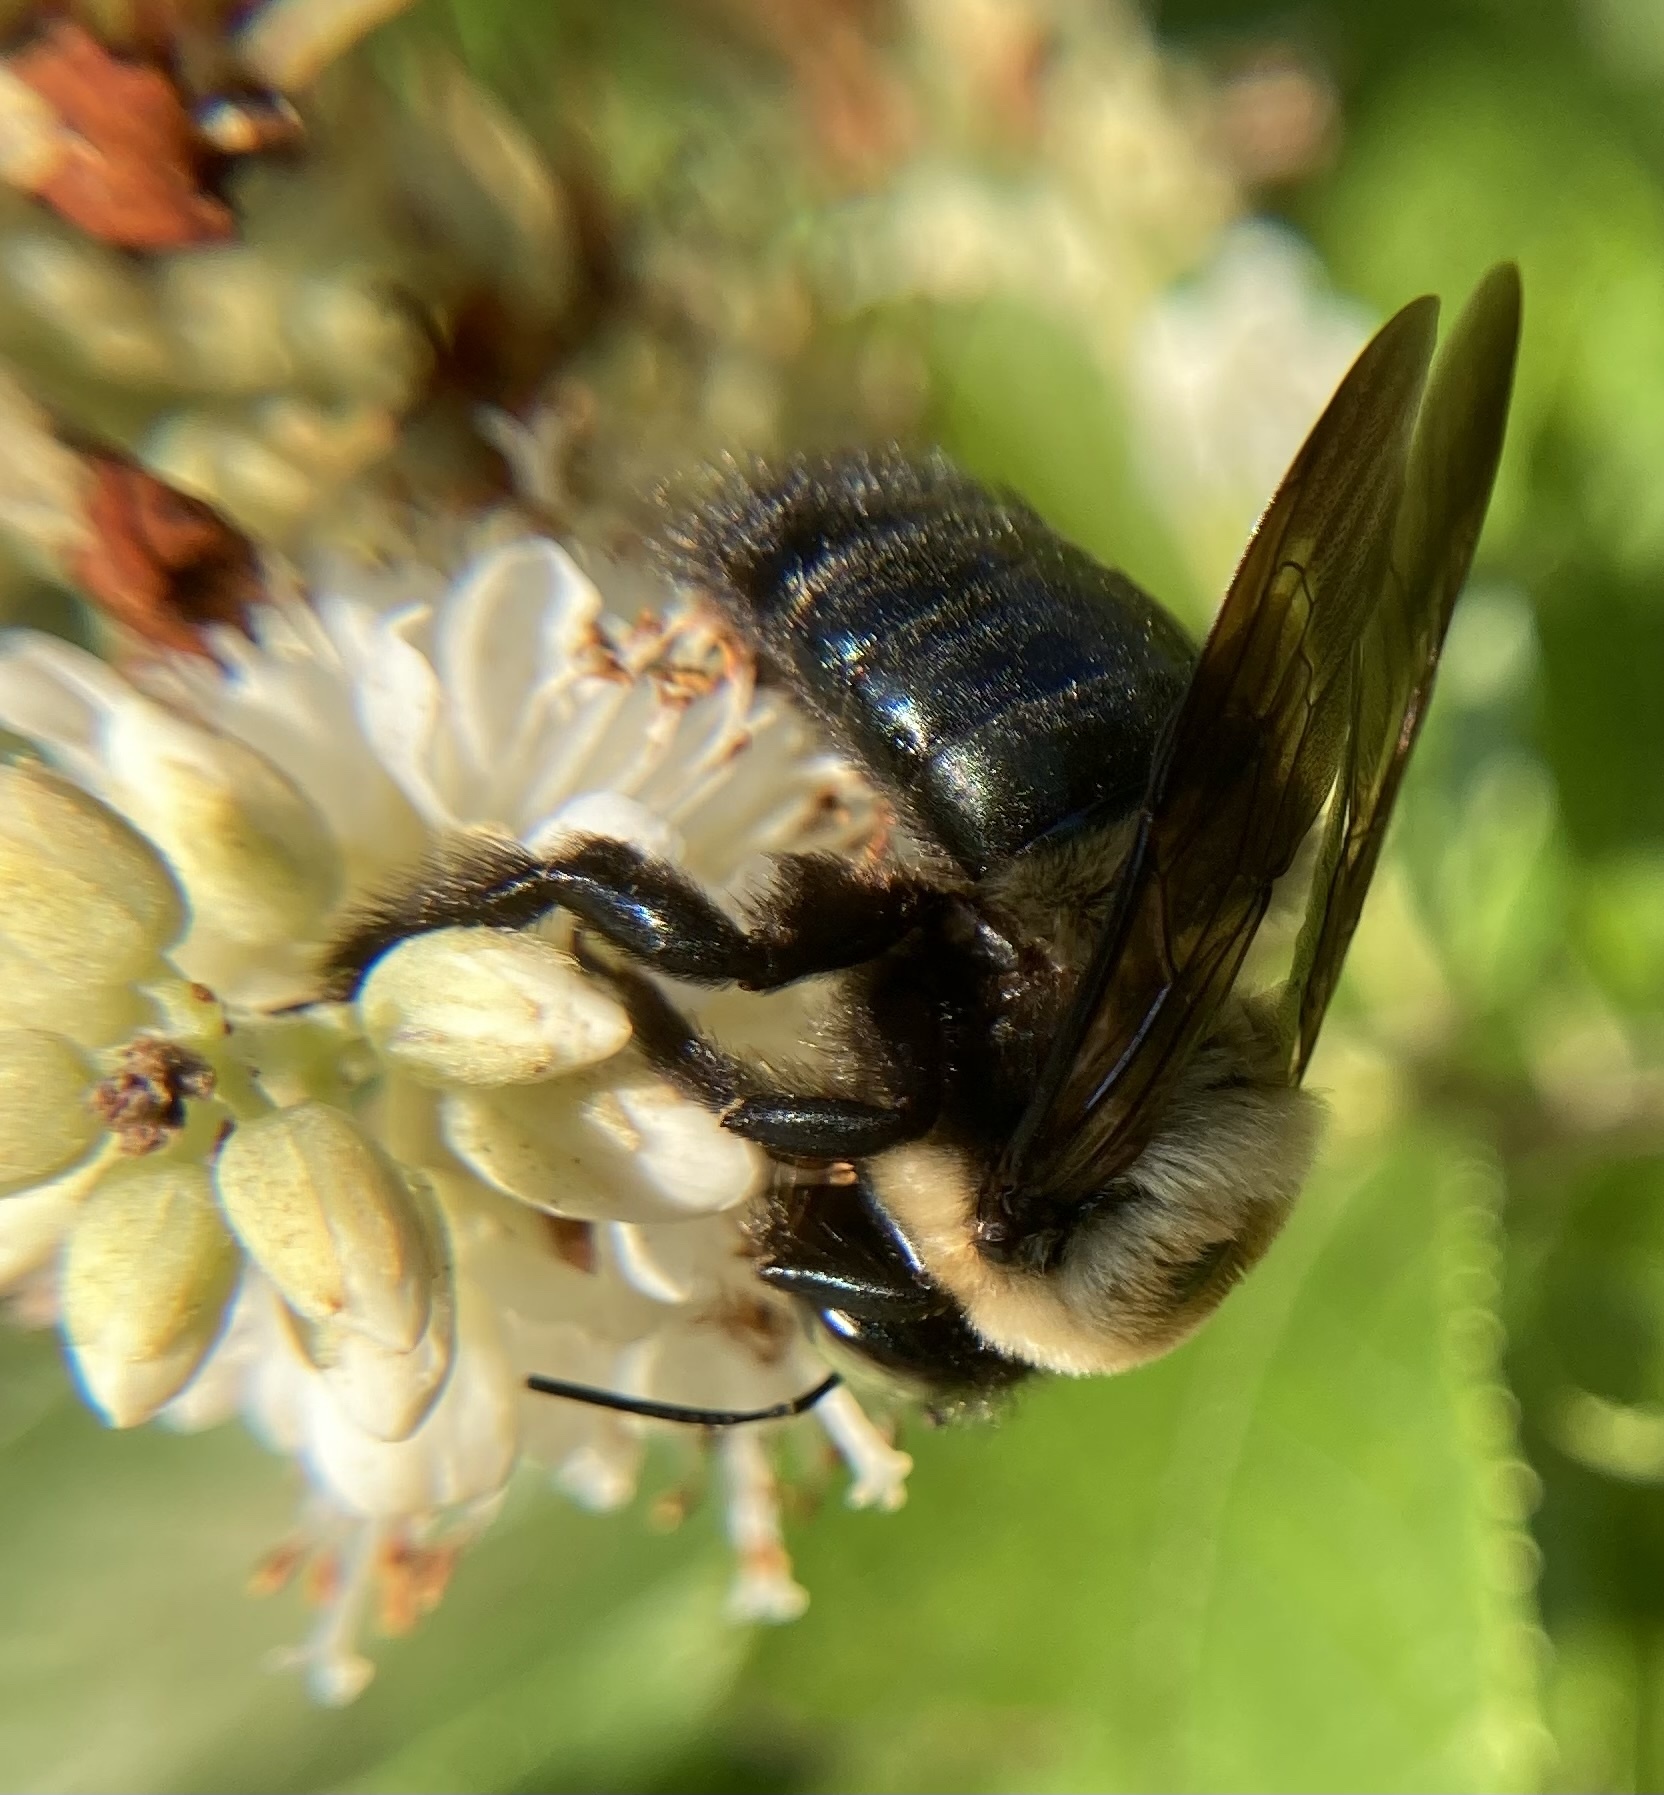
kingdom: Animalia
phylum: Arthropoda
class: Insecta
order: Hymenoptera
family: Apidae
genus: Xylocopa
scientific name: Xylocopa virginica
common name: Carpenter bee
